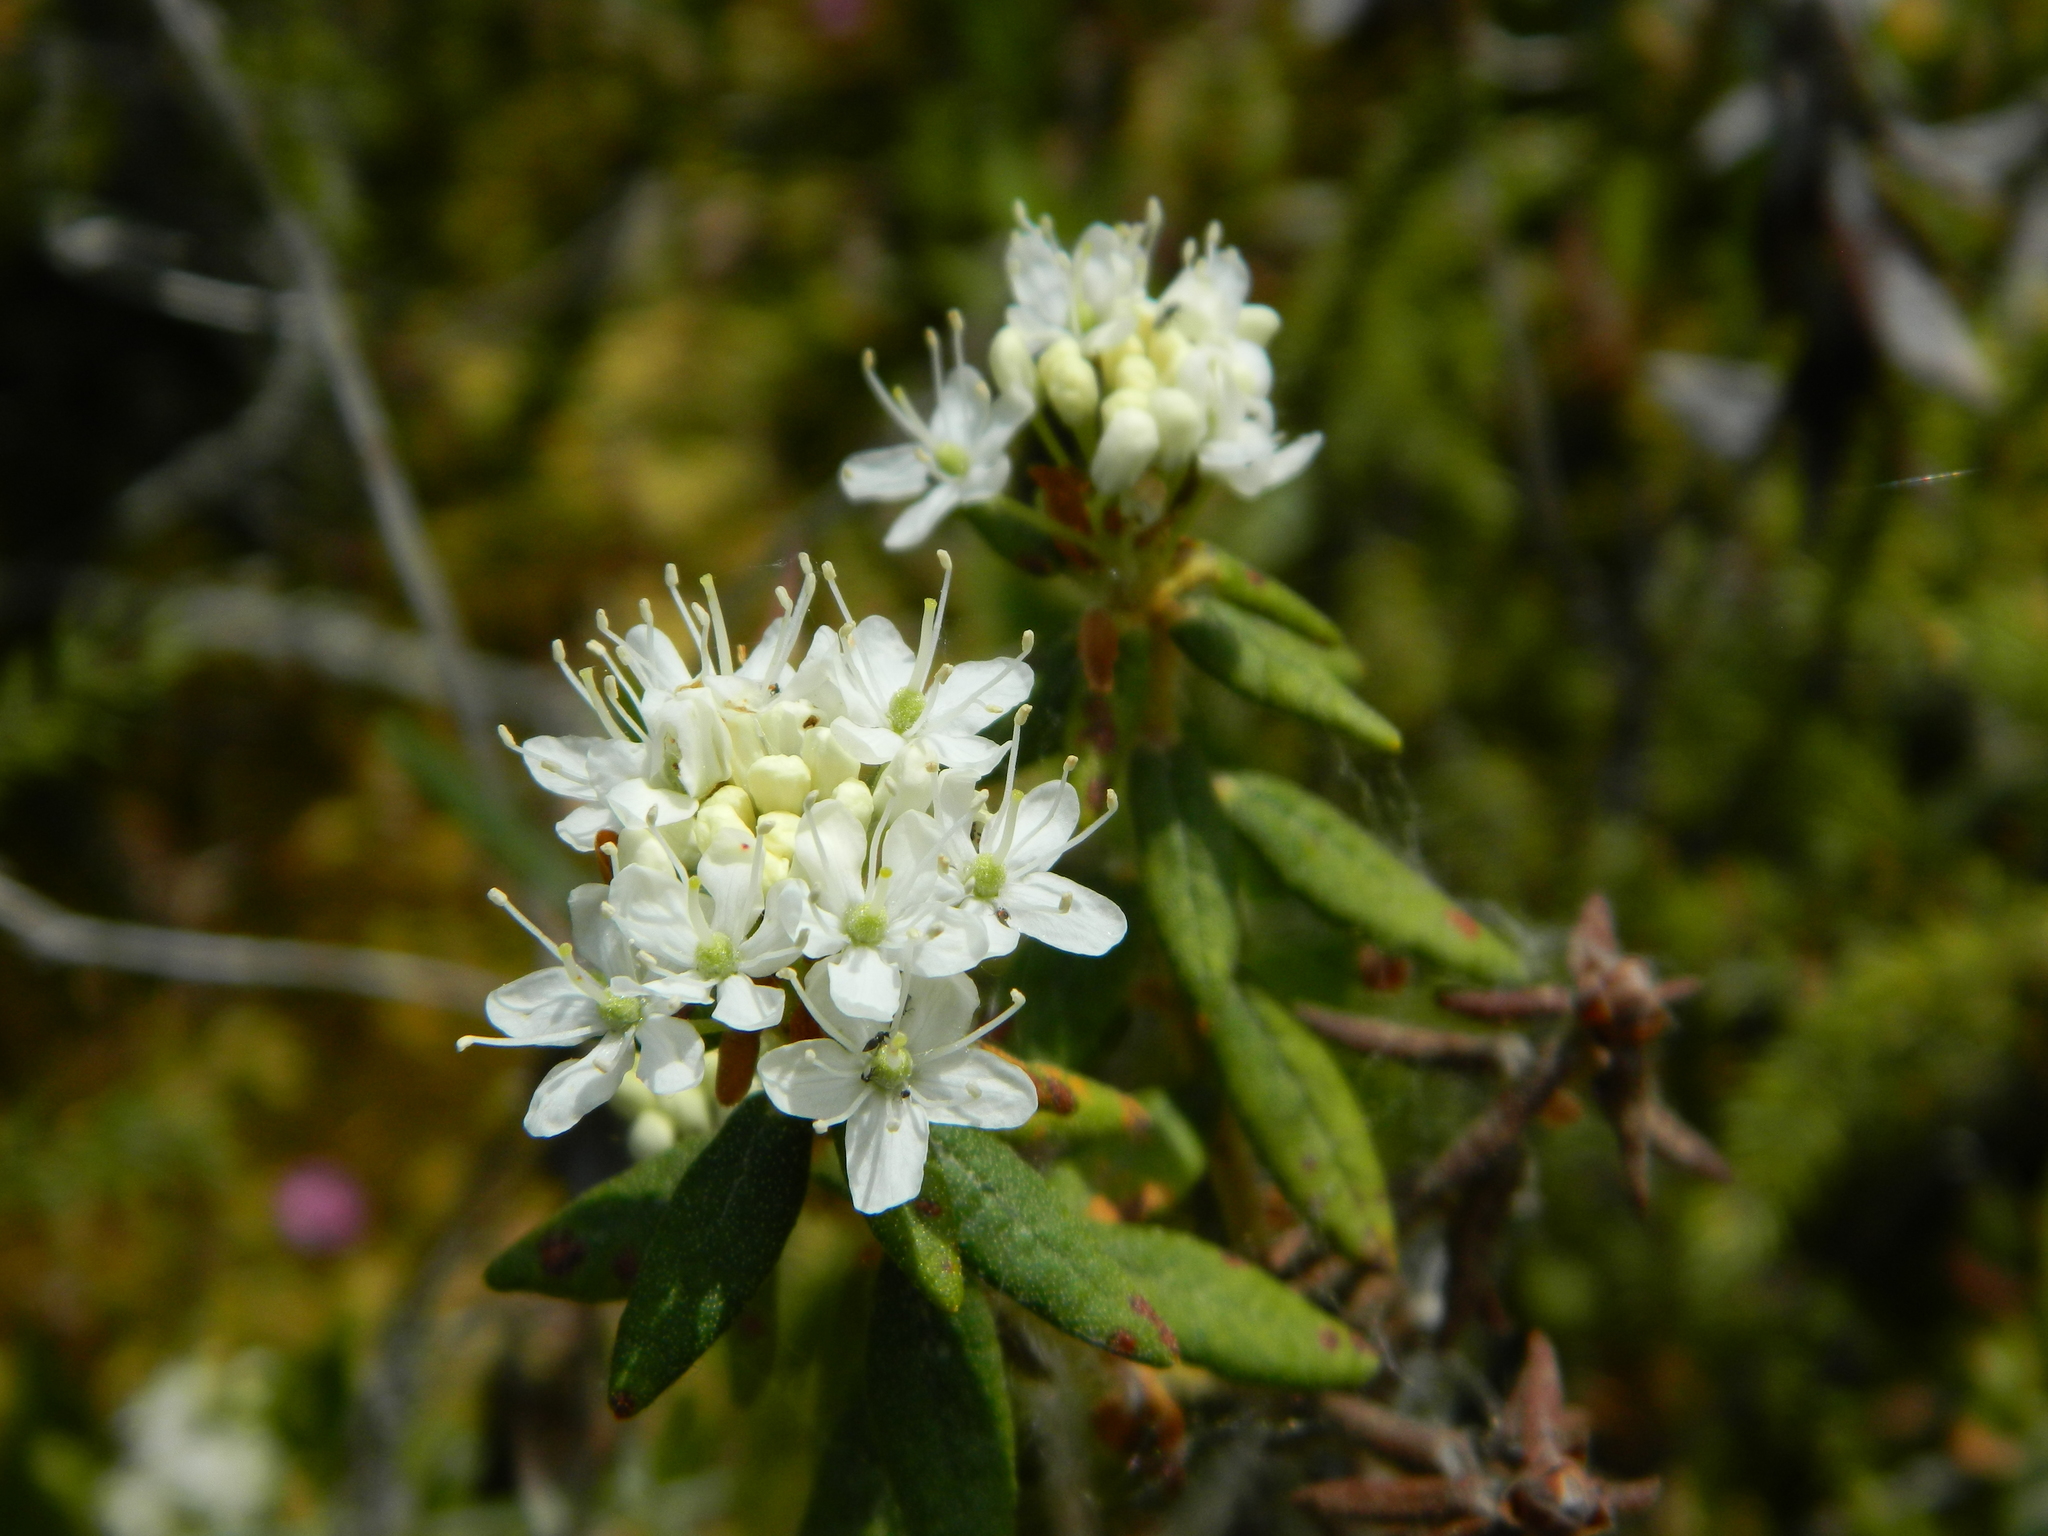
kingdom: Plantae
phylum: Tracheophyta
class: Magnoliopsida
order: Ericales
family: Ericaceae
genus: Rhododendron
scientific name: Rhododendron groenlandicum
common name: Bog labrador tea
